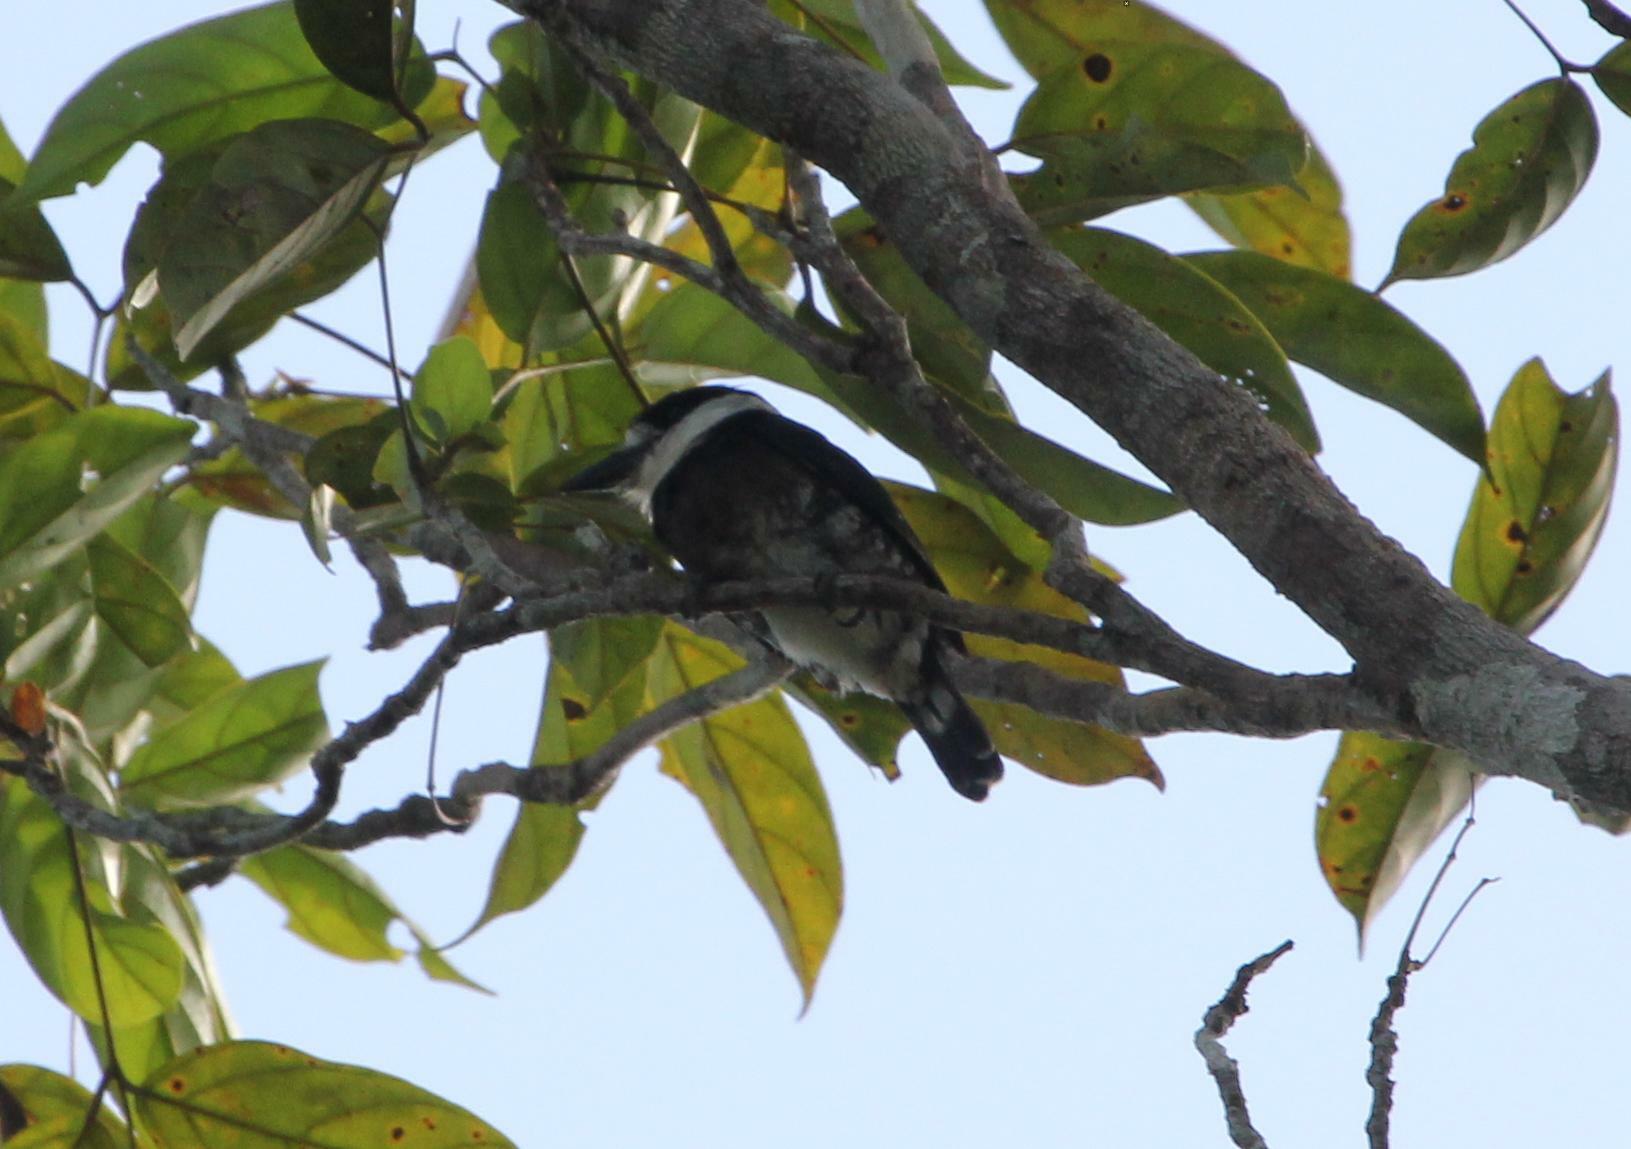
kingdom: Animalia
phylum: Chordata
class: Aves
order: Piciformes
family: Bucconidae
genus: Notharchus
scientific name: Notharchus ordii
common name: Brown-banded puffbird
